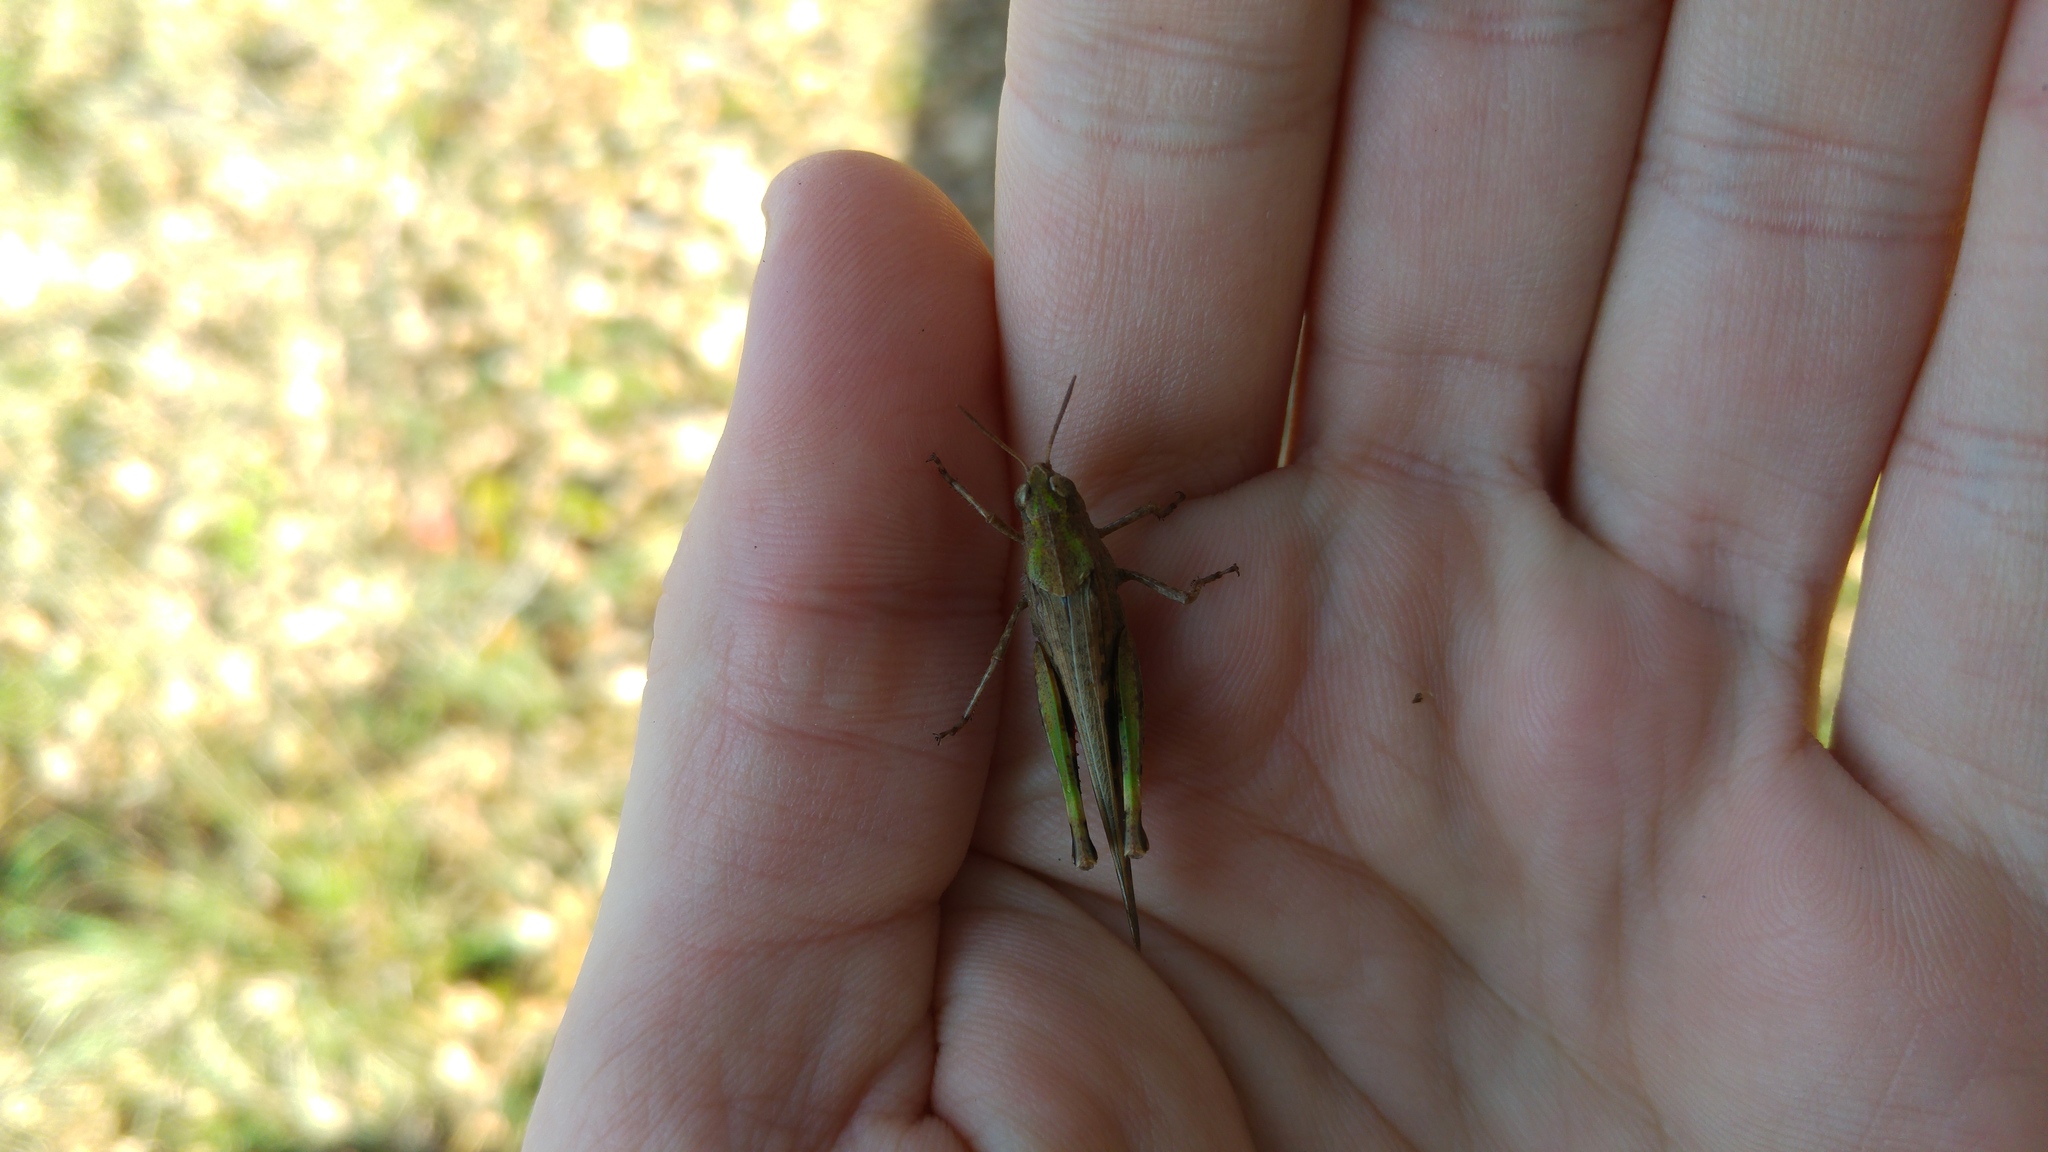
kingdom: Animalia
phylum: Arthropoda
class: Insecta
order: Orthoptera
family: Acrididae
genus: Aiolopus
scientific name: Aiolopus strepens
